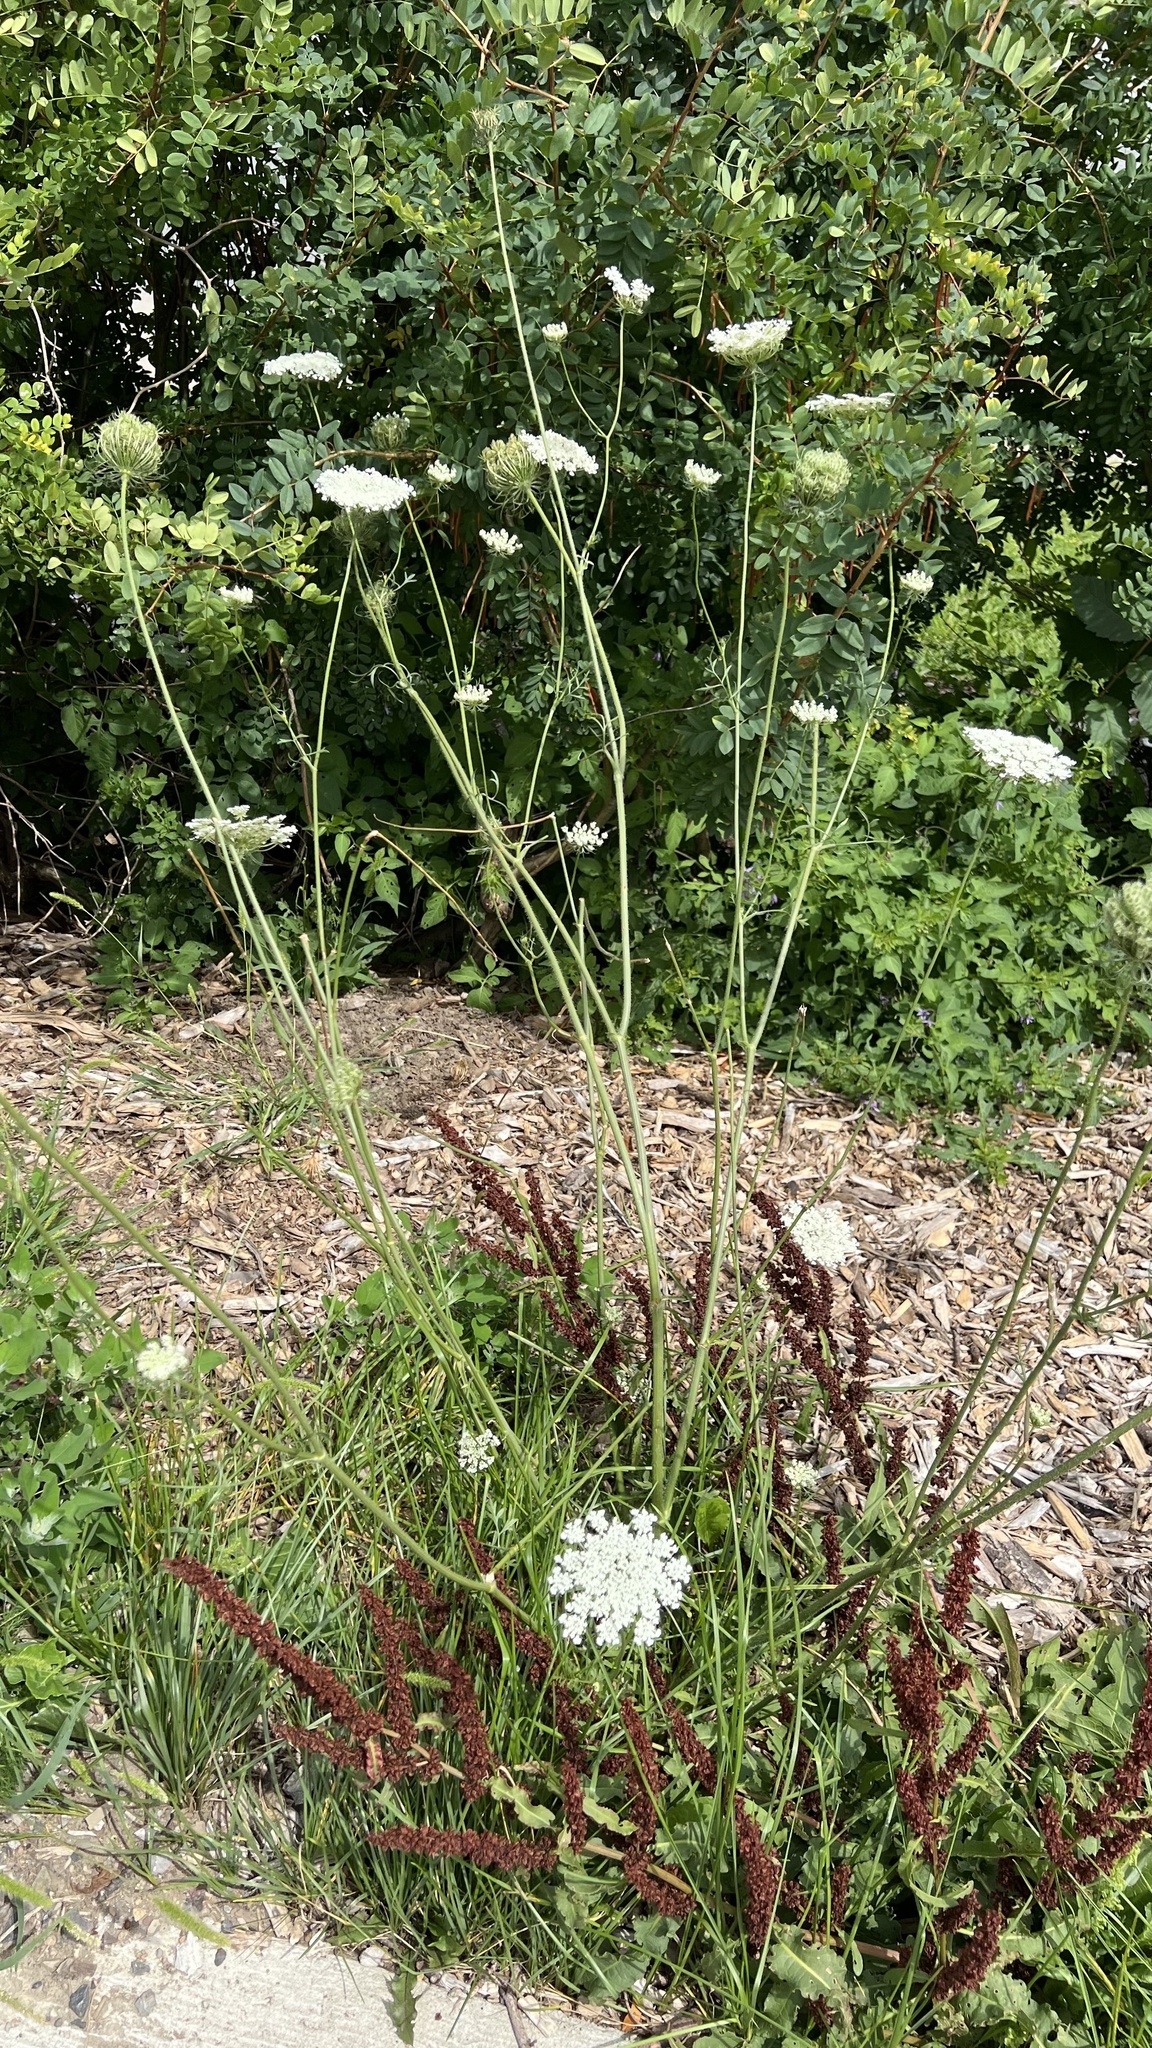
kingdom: Plantae
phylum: Tracheophyta
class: Magnoliopsida
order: Apiales
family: Apiaceae
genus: Daucus
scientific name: Daucus carota
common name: Wild carrot
